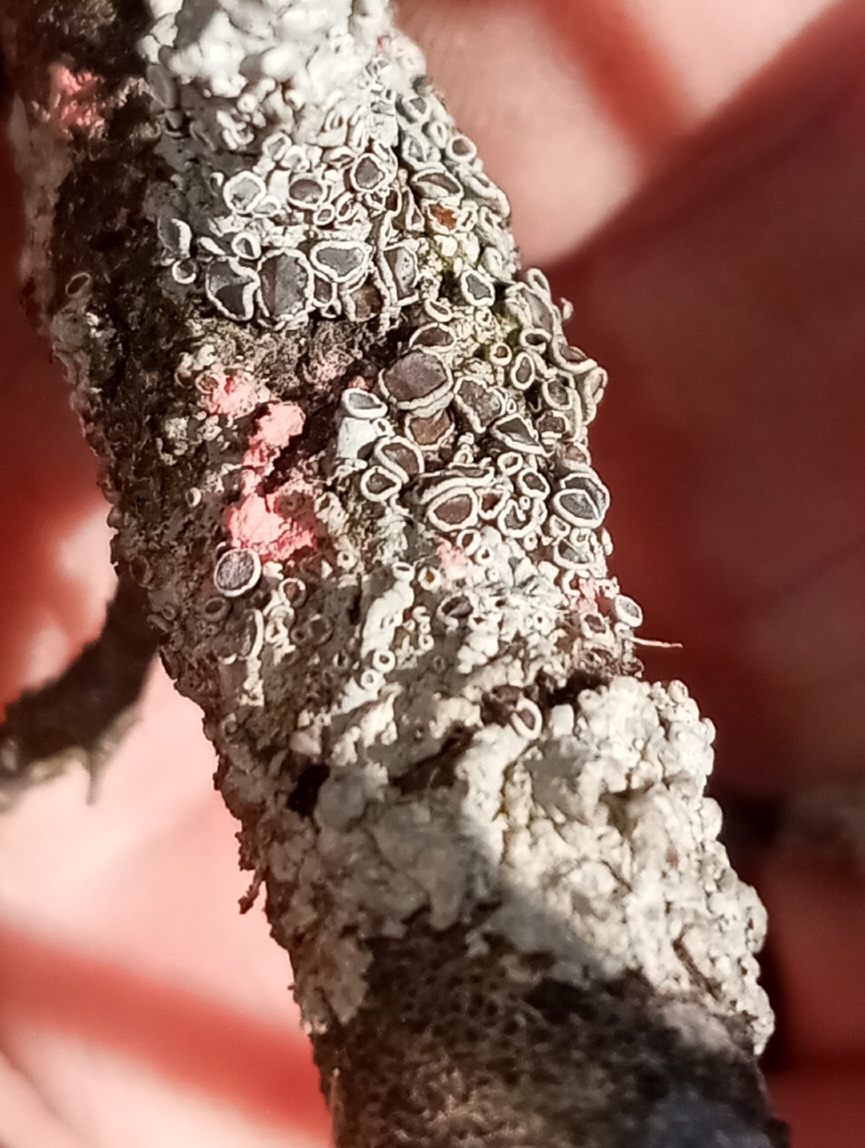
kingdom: Fungi
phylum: Ascomycota
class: Sordariomycetes
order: Hypocreales
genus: Illosporiopsis
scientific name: Illosporiopsis christiansenii
